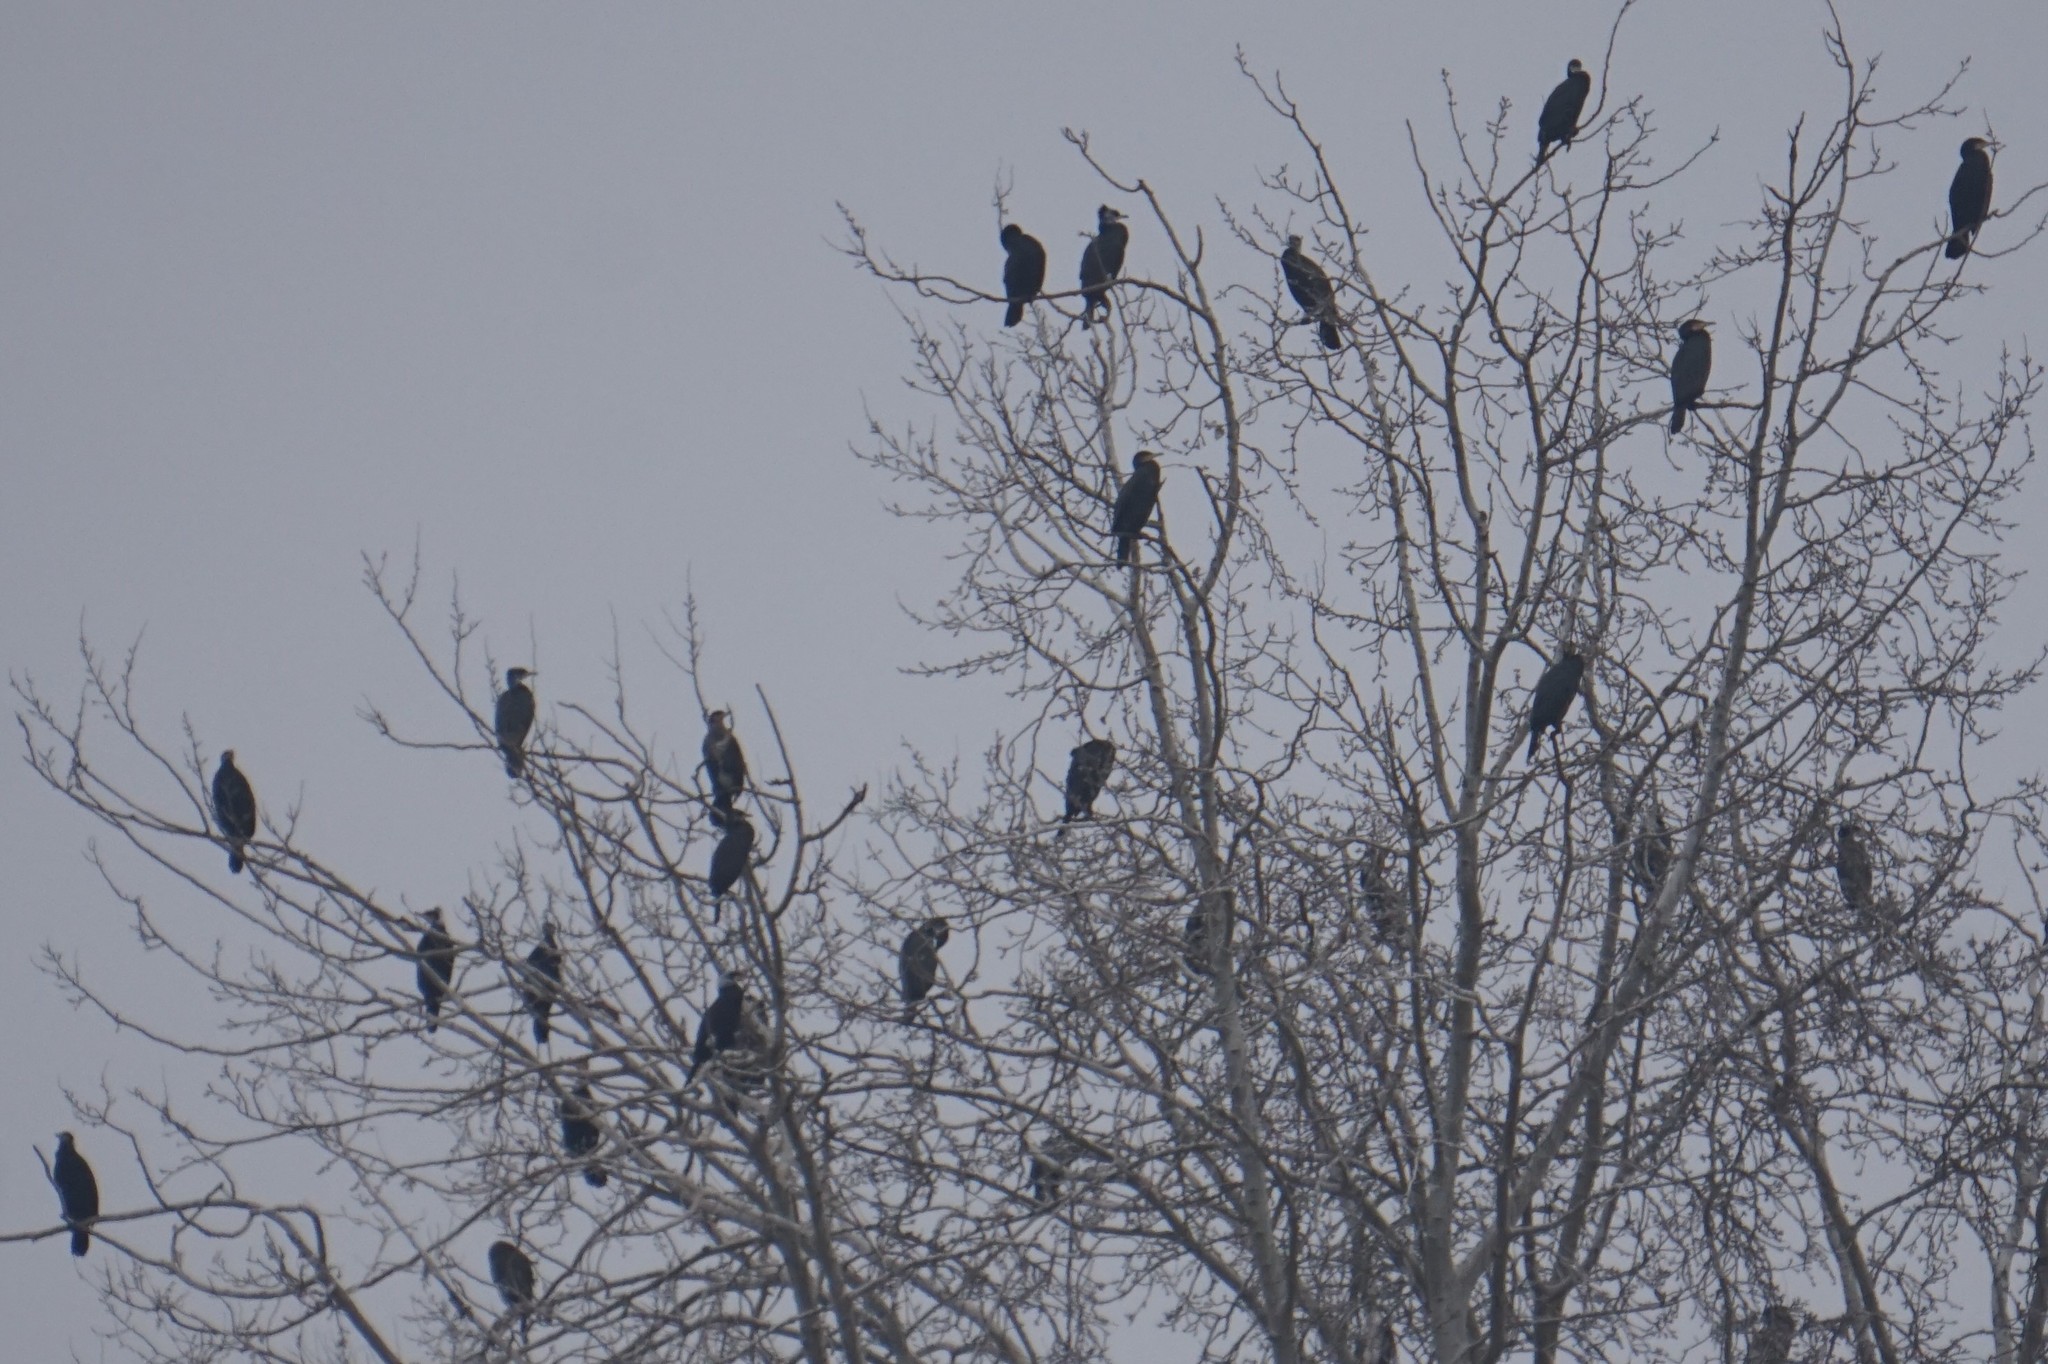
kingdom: Animalia
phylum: Chordata
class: Aves
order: Suliformes
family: Phalacrocoracidae
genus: Phalacrocorax
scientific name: Phalacrocorax carbo
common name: Great cormorant
